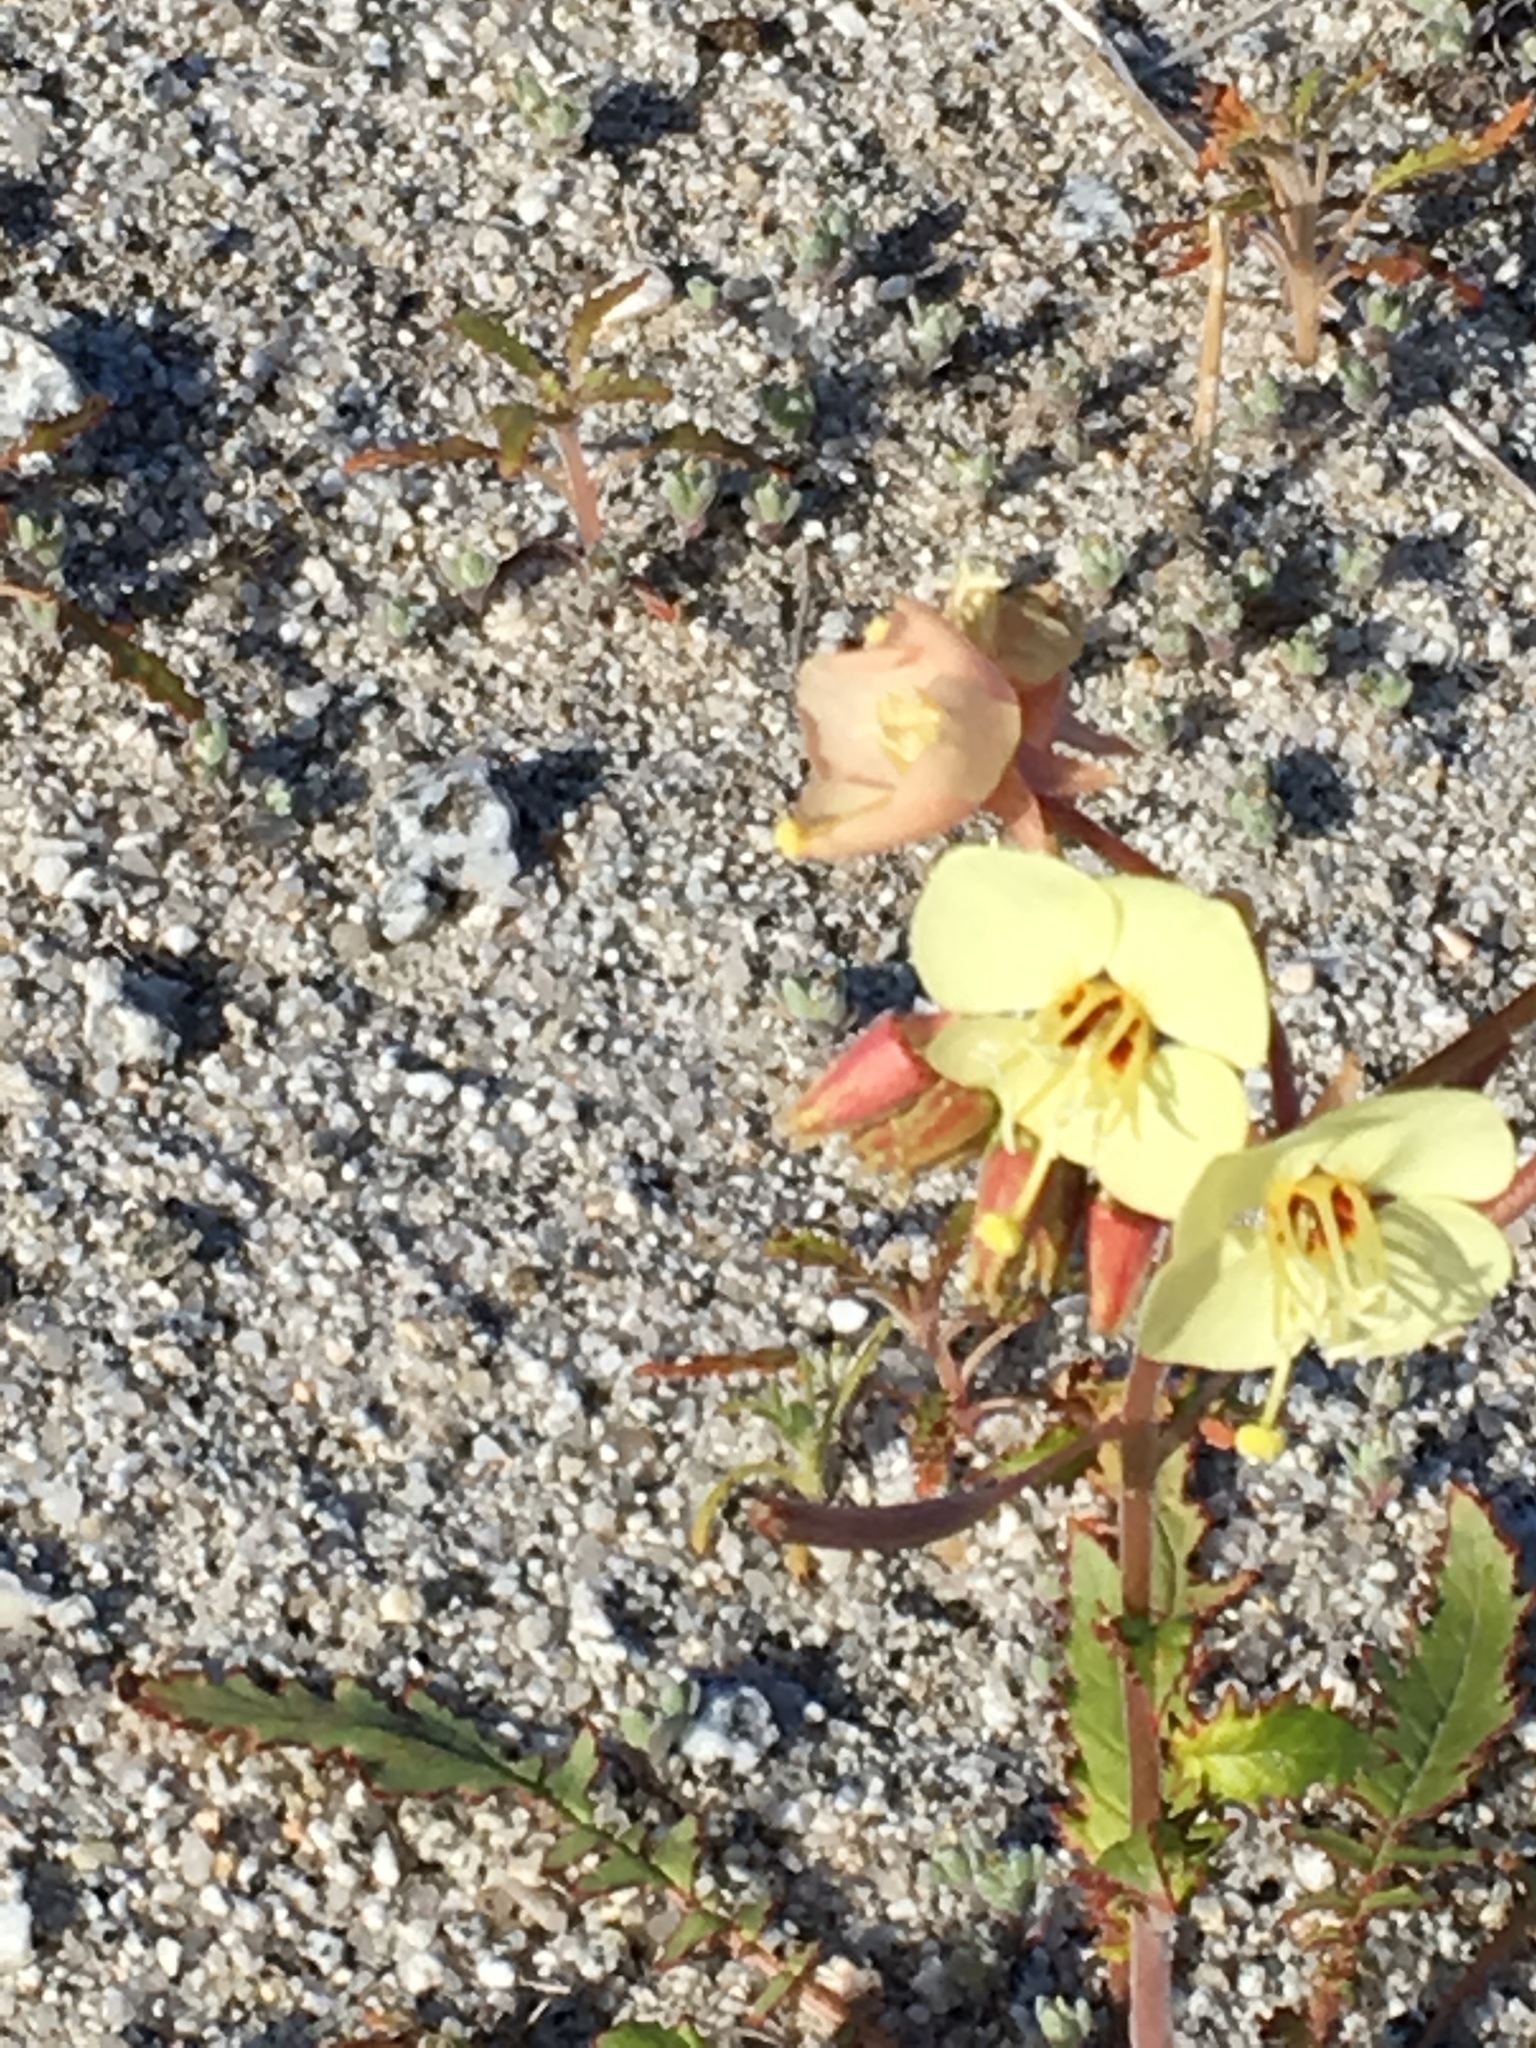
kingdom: Plantae
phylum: Tracheophyta
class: Magnoliopsida
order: Myrtales
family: Onagraceae
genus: Chylismia
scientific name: Chylismia claviformis
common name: Browneyes
